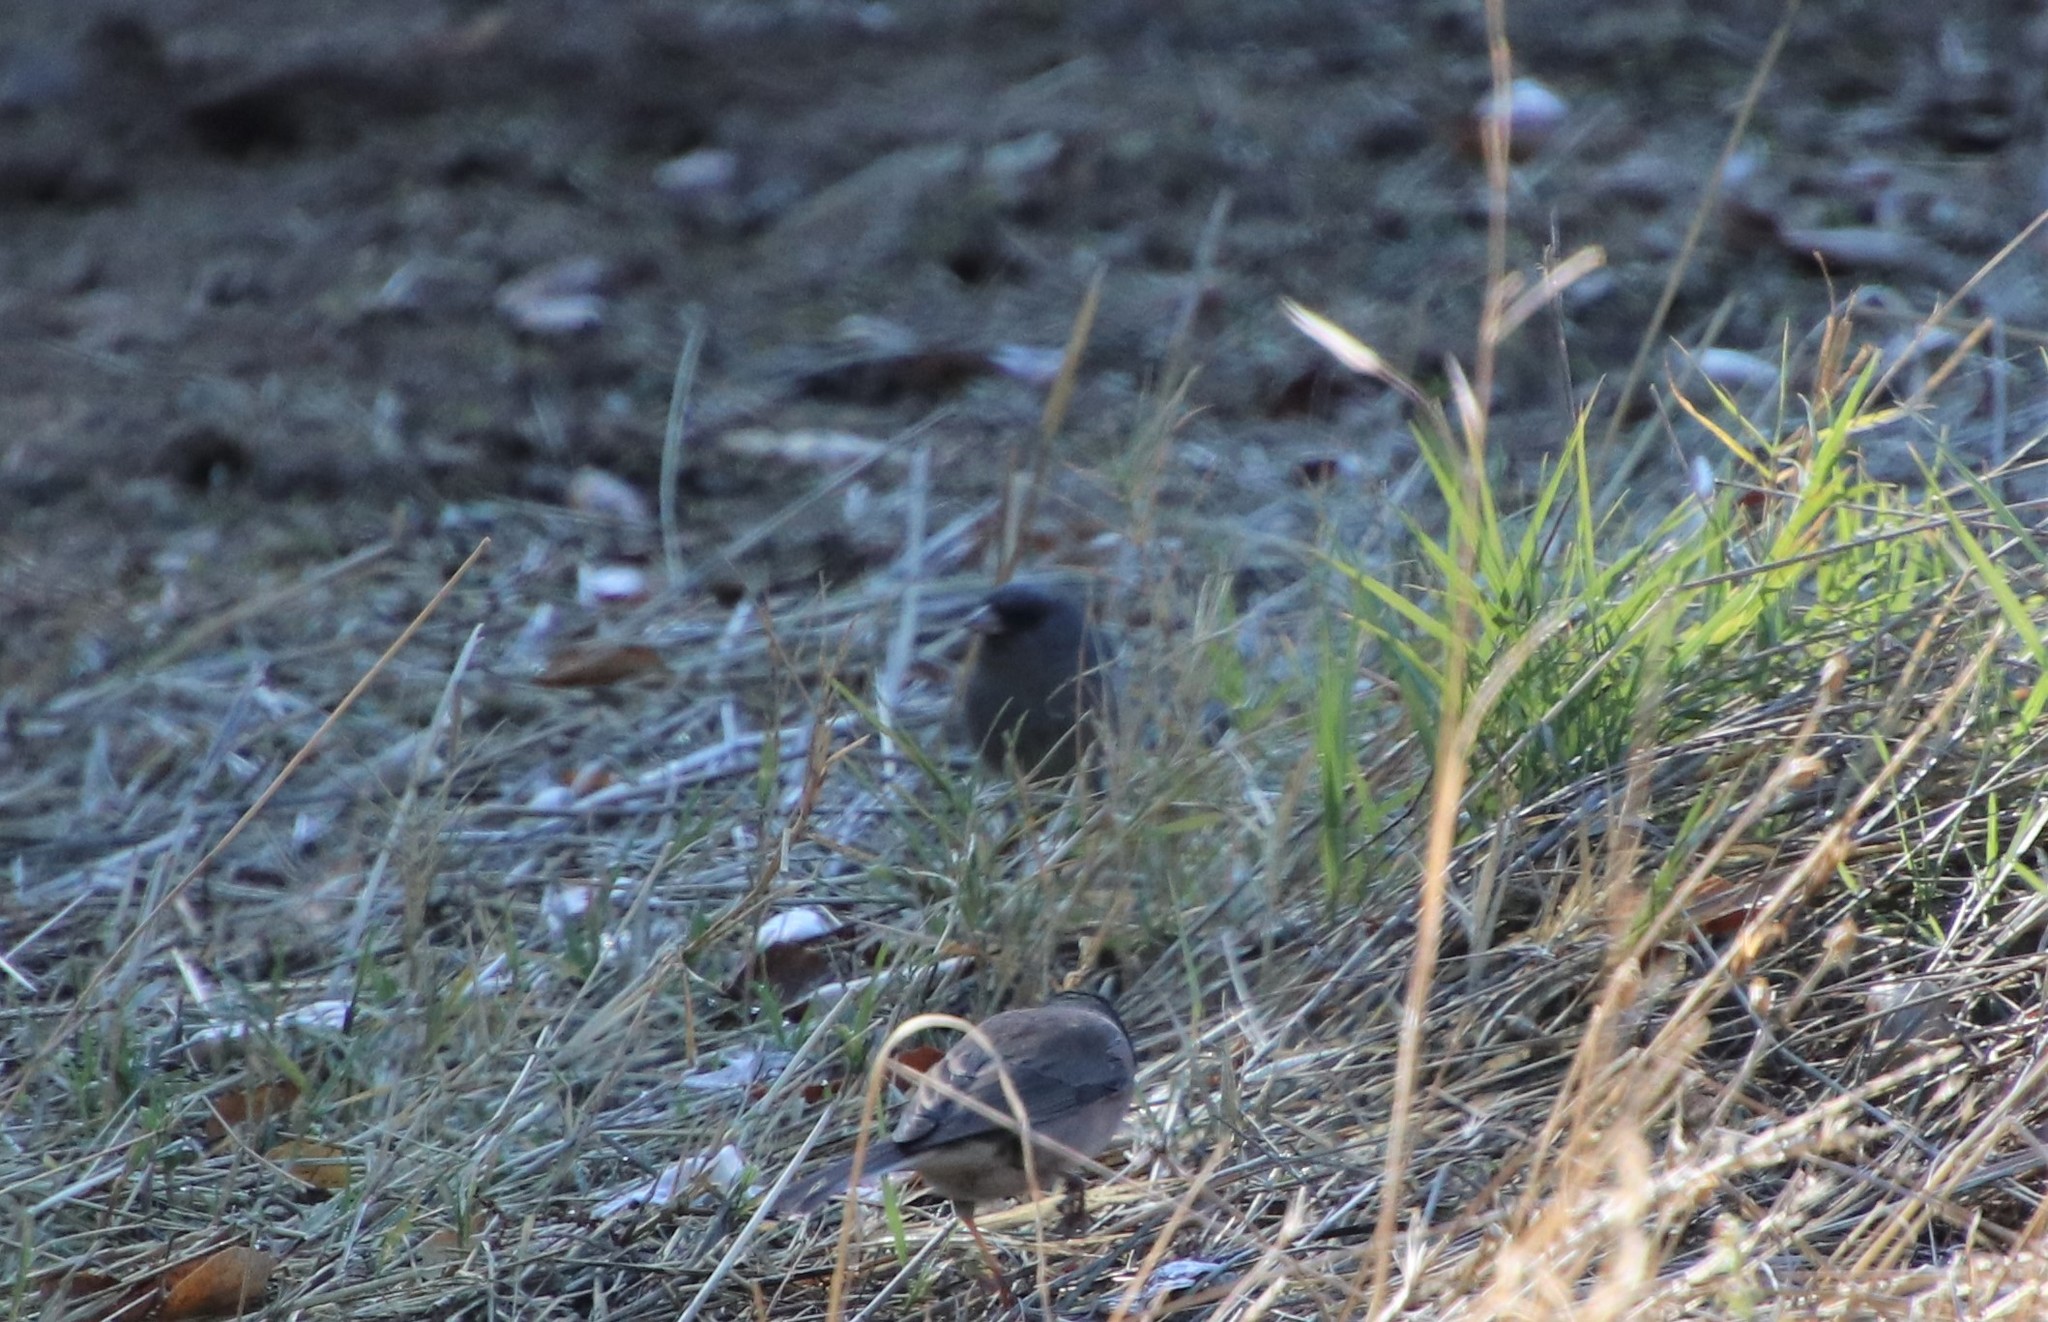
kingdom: Animalia
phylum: Chordata
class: Aves
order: Passeriformes
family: Passerellidae
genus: Junco
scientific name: Junco hyemalis
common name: Dark-eyed junco
